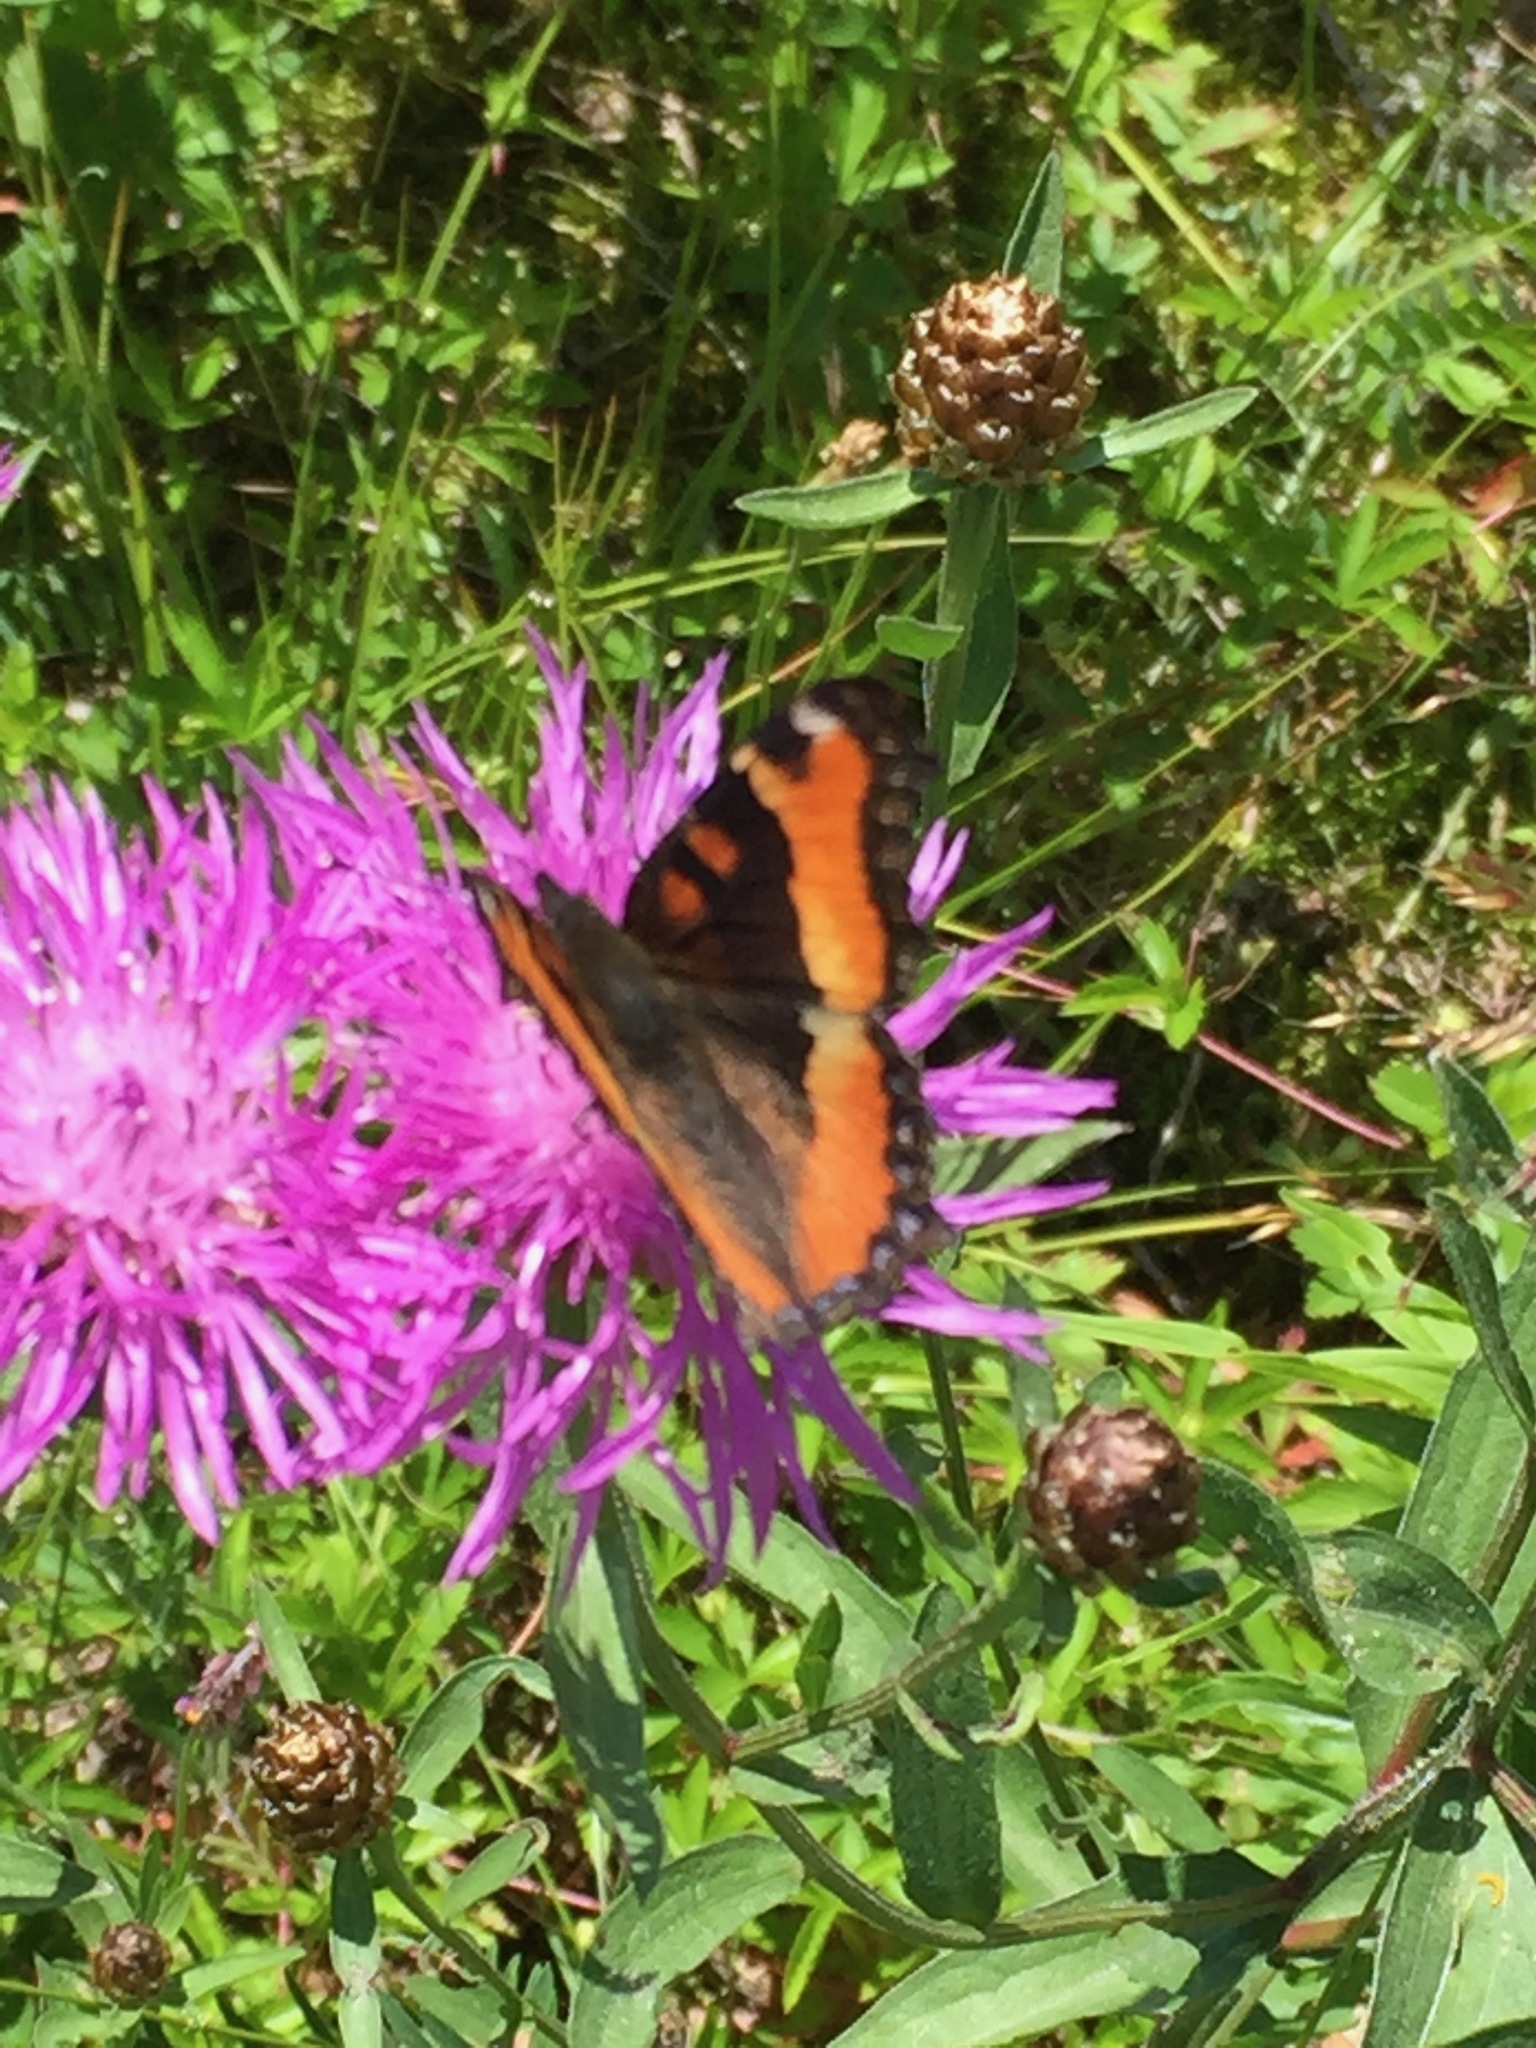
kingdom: Animalia
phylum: Arthropoda
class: Insecta
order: Lepidoptera
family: Nymphalidae
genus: Aglais
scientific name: Aglais milberti
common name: Milbert's tortoiseshell
